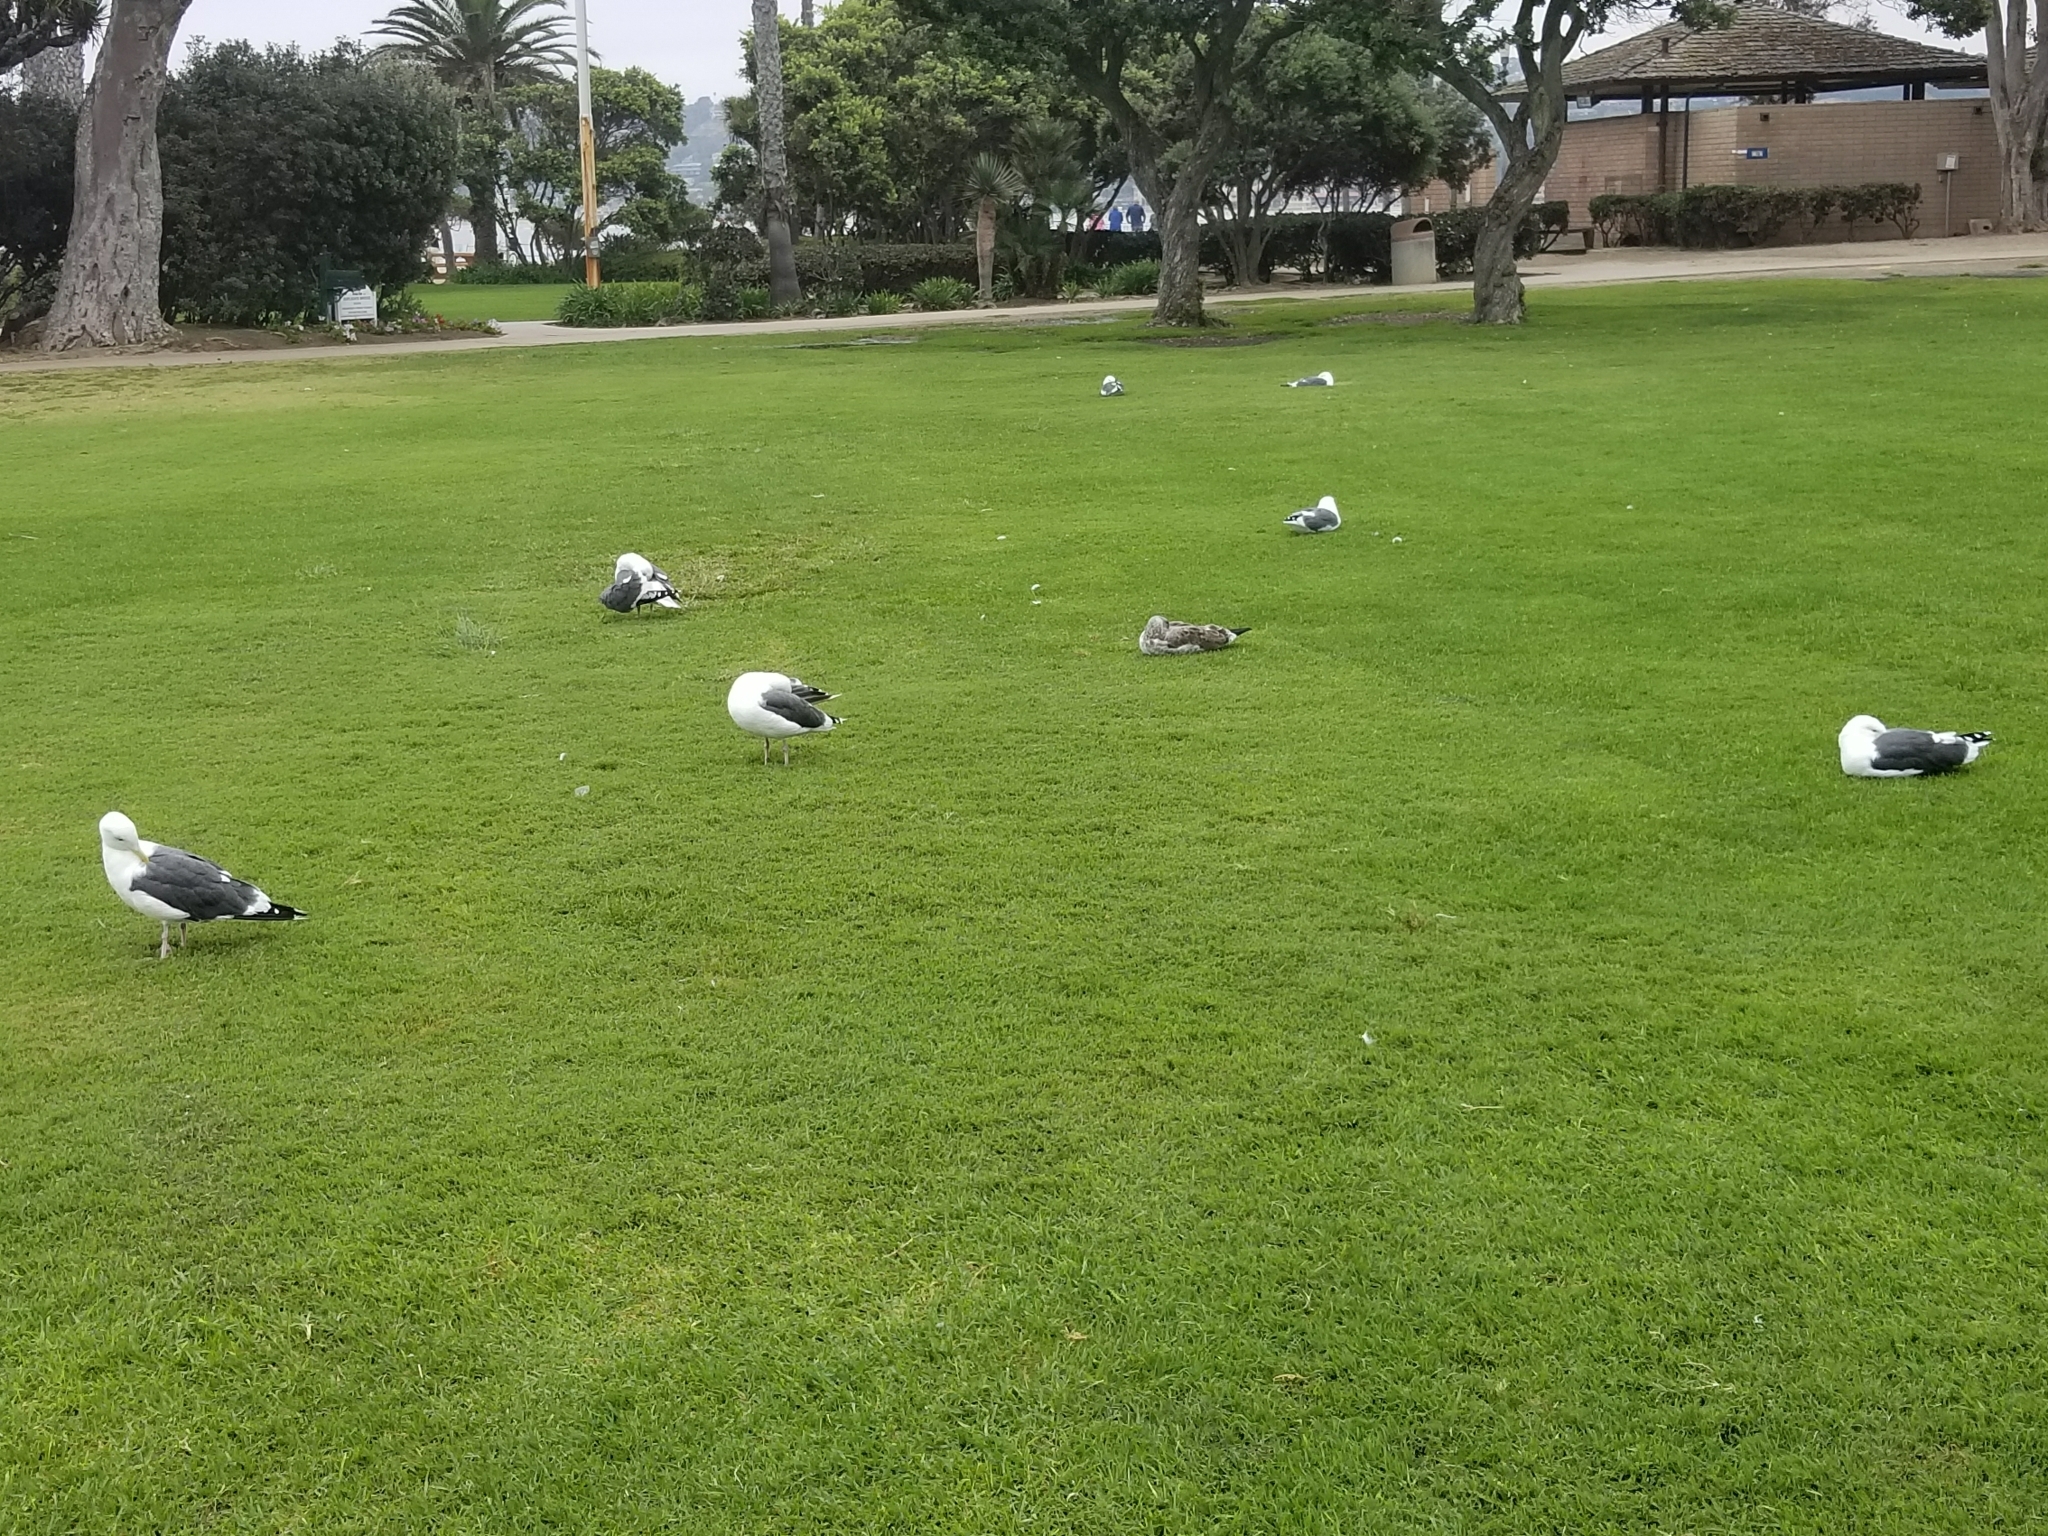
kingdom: Animalia
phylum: Chordata
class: Aves
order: Charadriiformes
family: Laridae
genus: Larus
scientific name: Larus occidentalis
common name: Western gull
